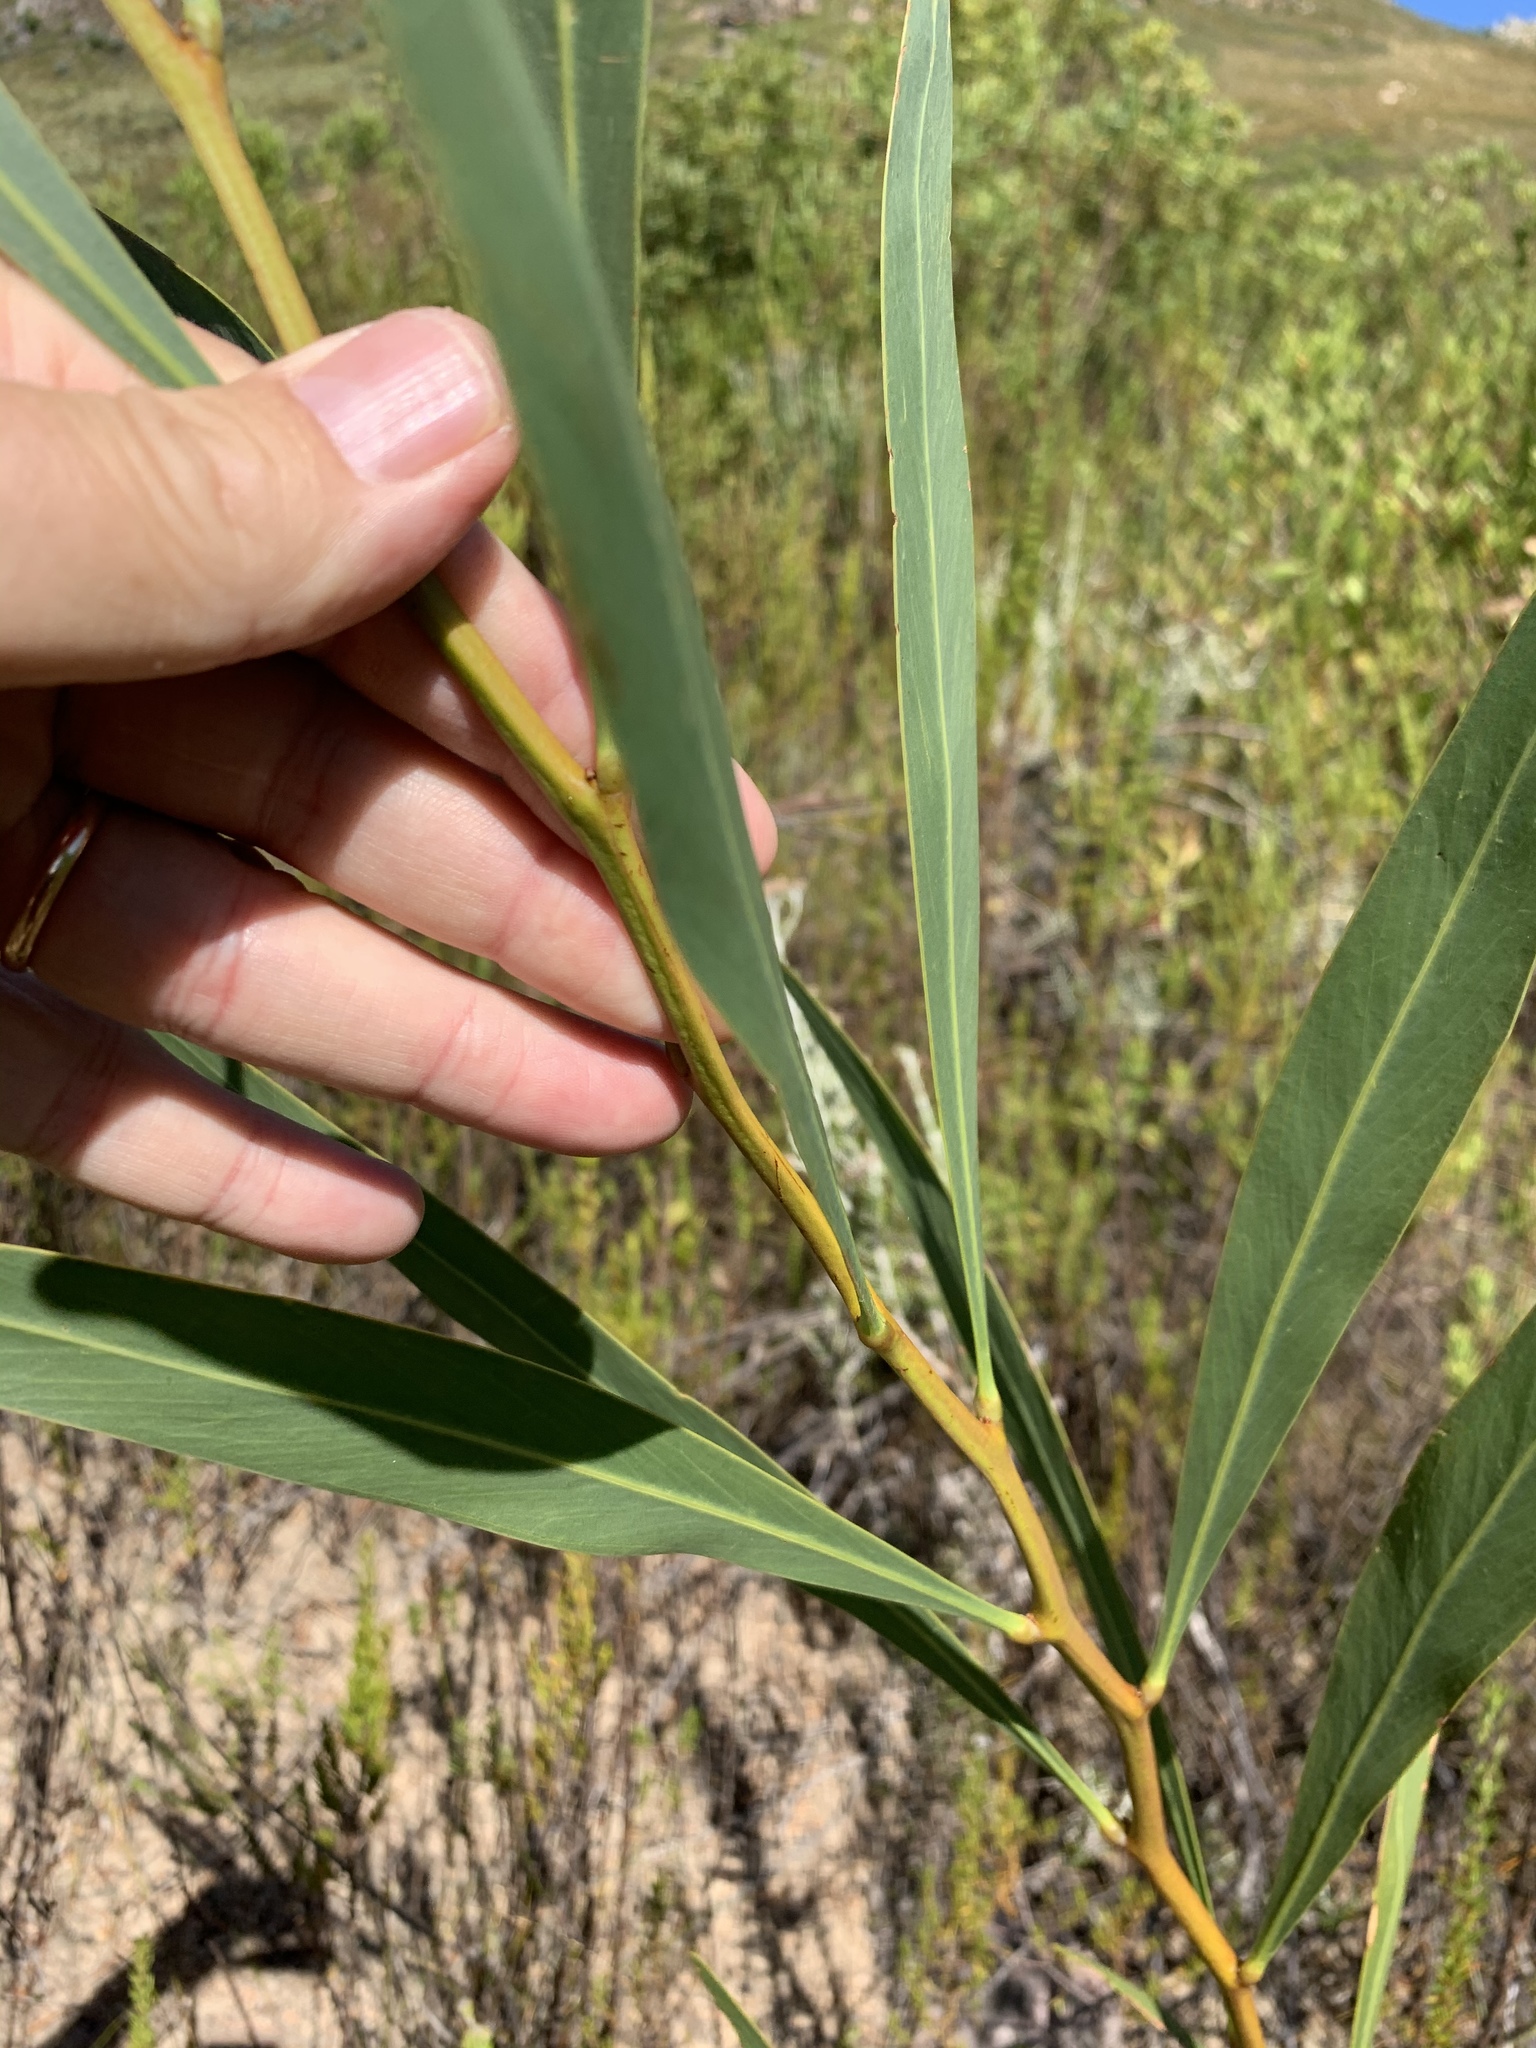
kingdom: Plantae
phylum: Tracheophyta
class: Magnoliopsida
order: Fabales
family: Fabaceae
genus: Acacia
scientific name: Acacia saligna
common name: Orange wattle
